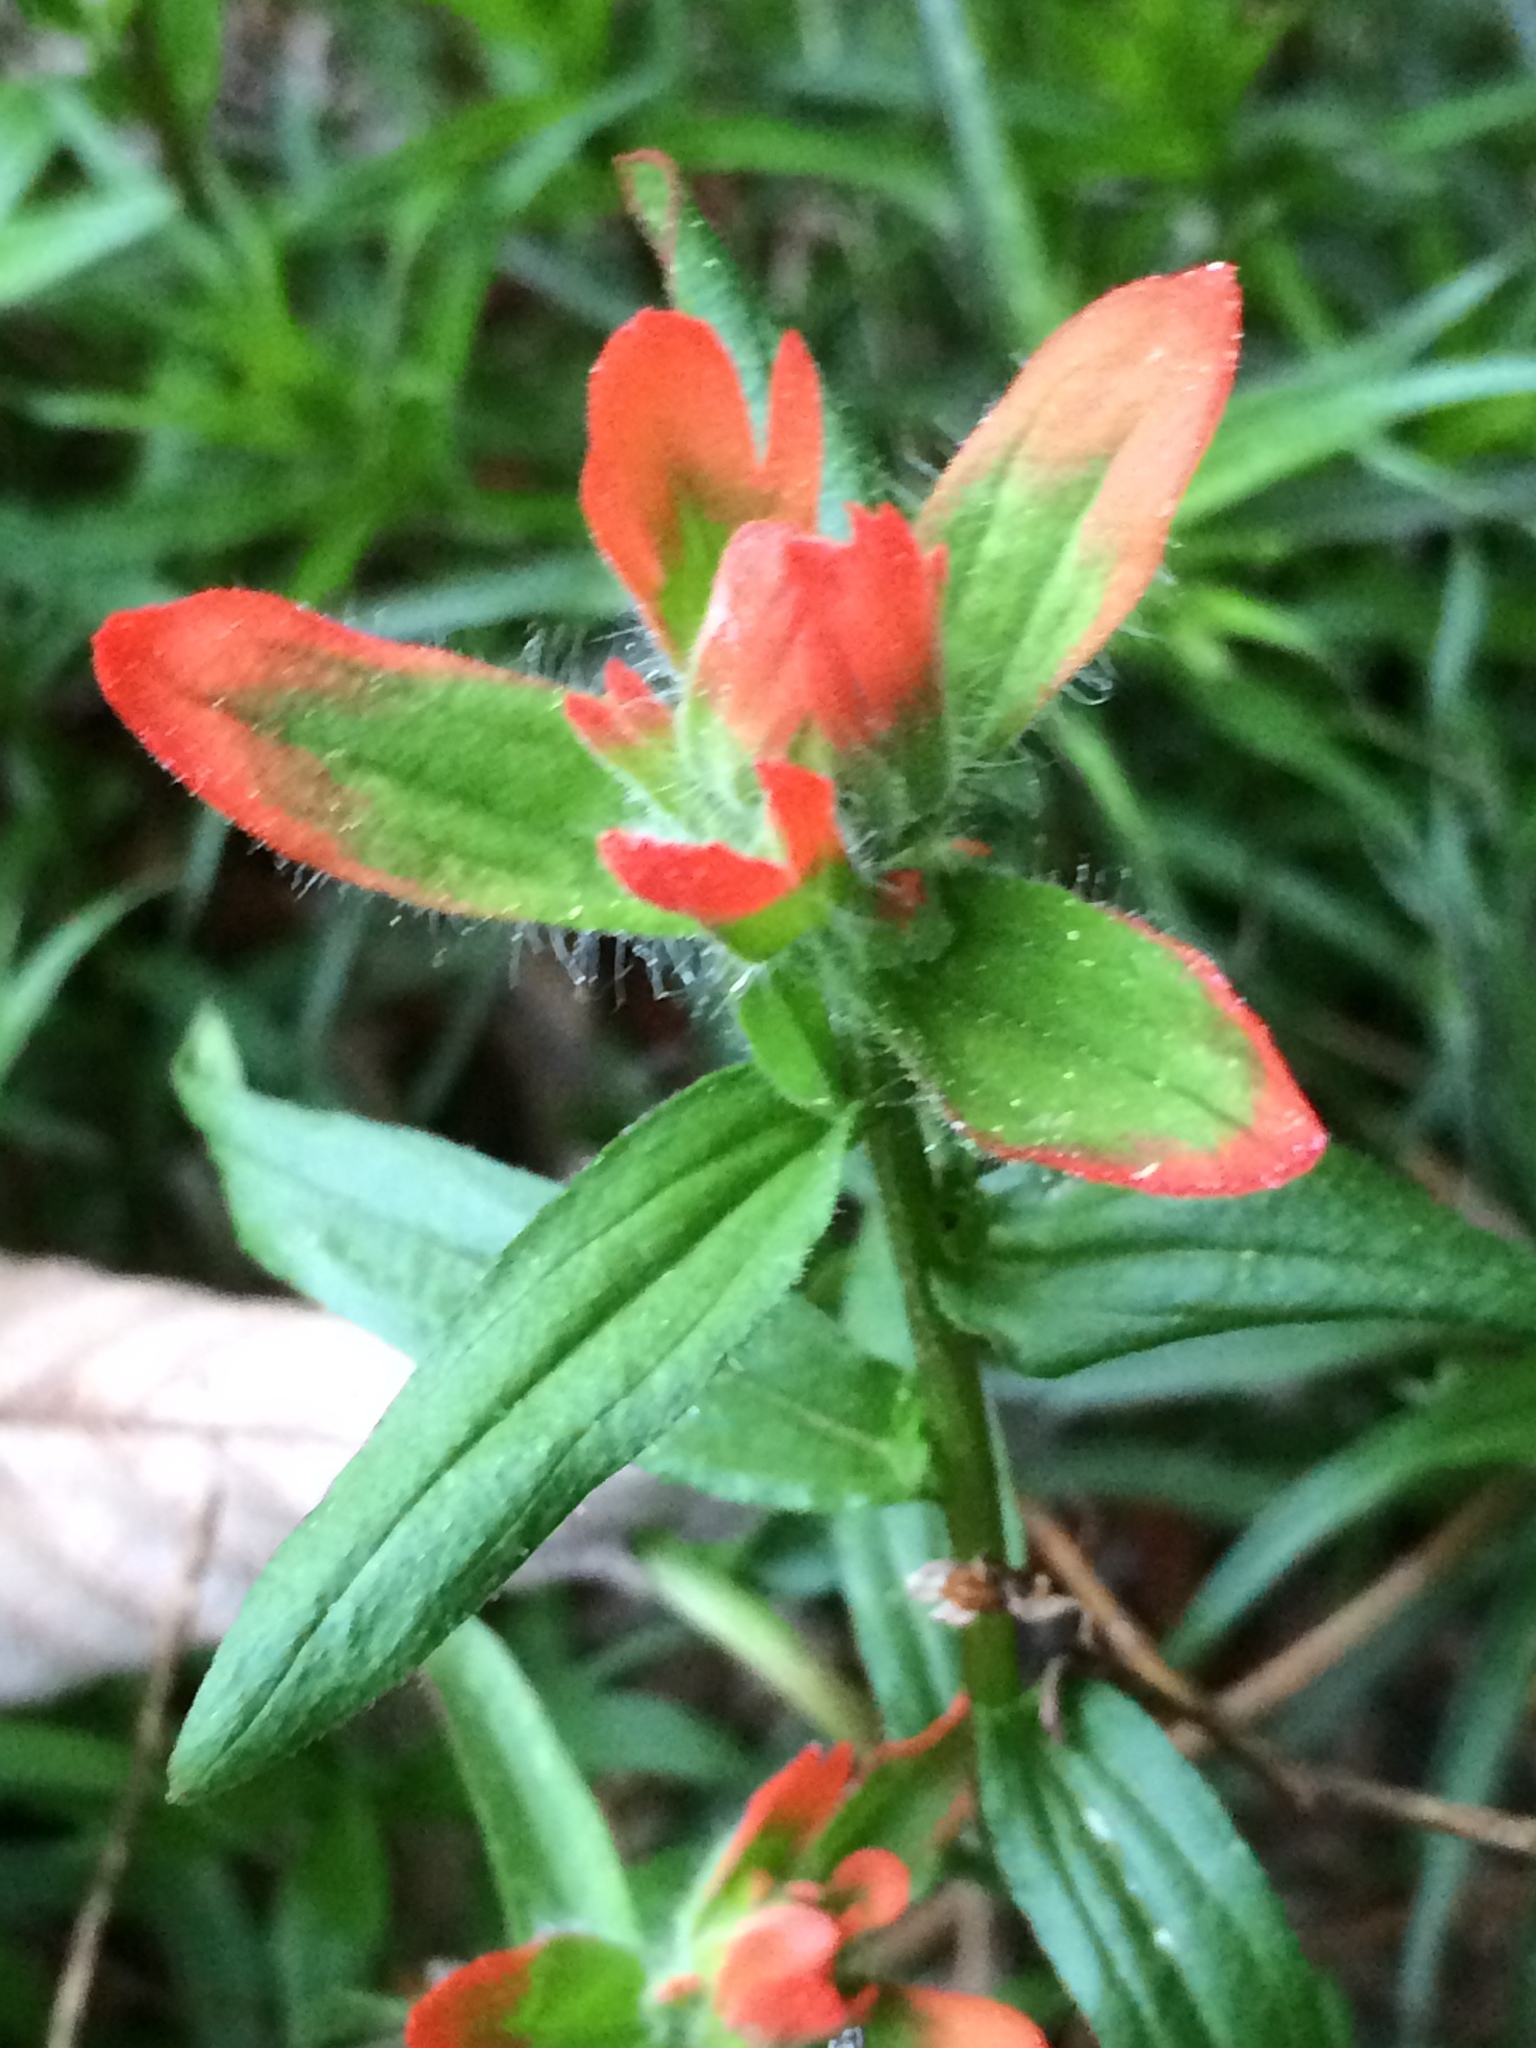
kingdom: Plantae
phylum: Tracheophyta
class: Magnoliopsida
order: Lamiales
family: Orobanchaceae
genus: Castilleja
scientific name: Castilleja miniata
